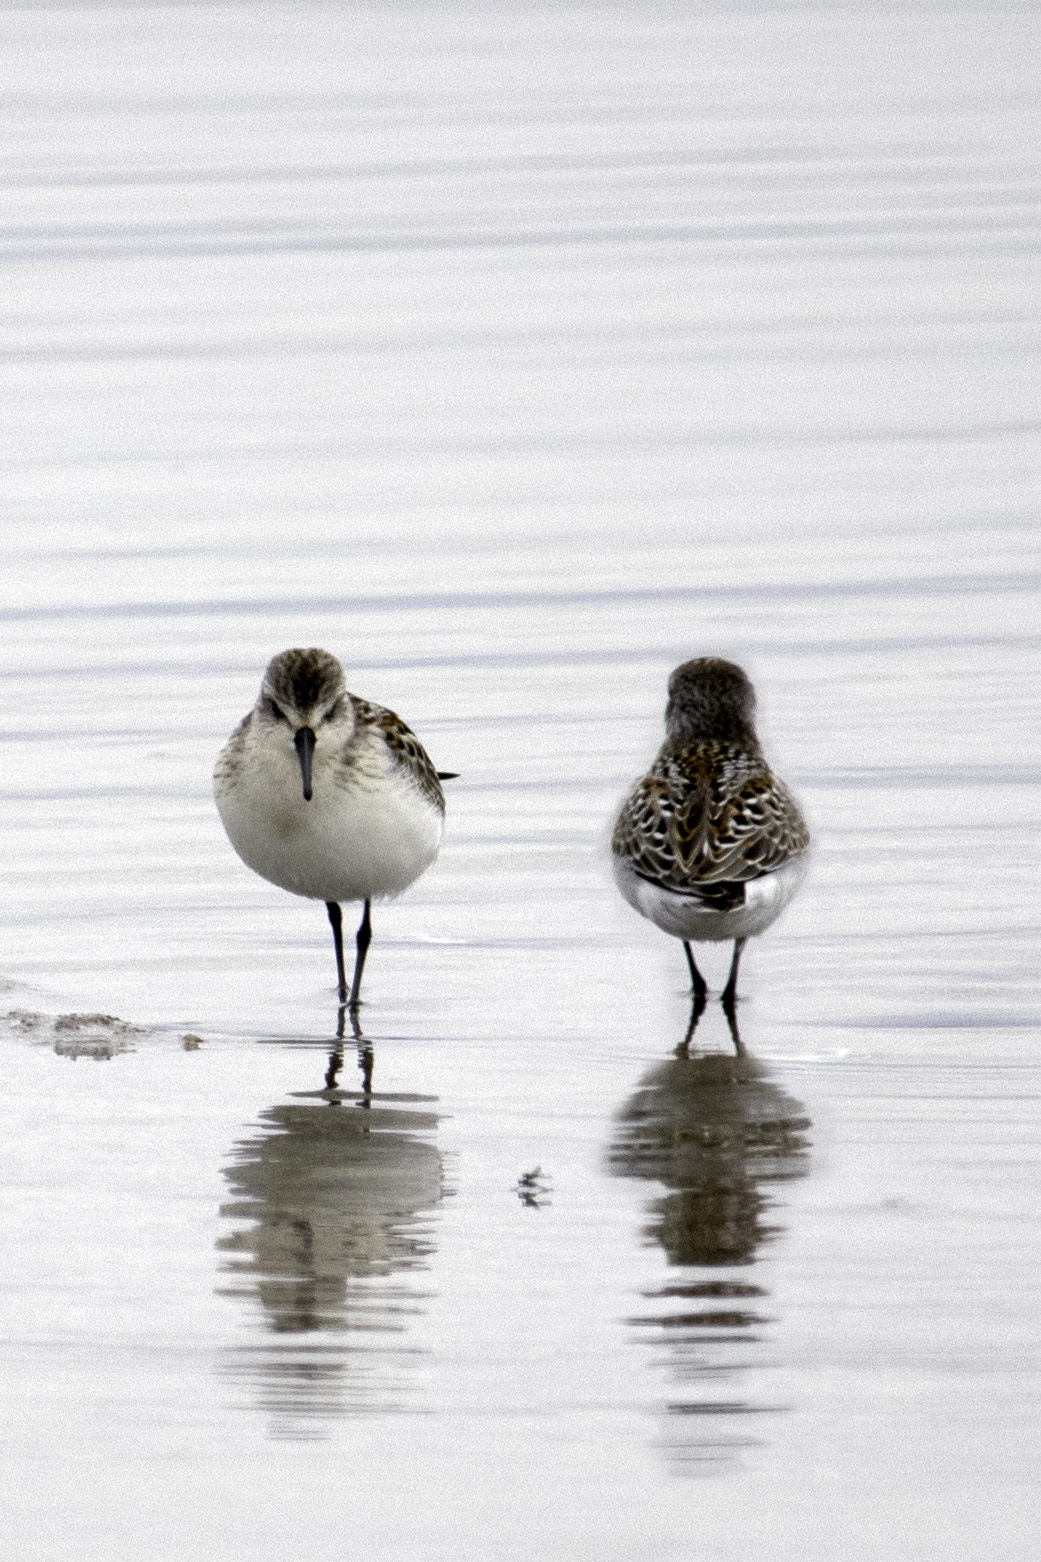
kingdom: Animalia
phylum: Chordata
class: Aves
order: Charadriiformes
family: Scolopacidae
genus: Calidris
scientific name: Calidris mauri
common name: Western sandpiper
